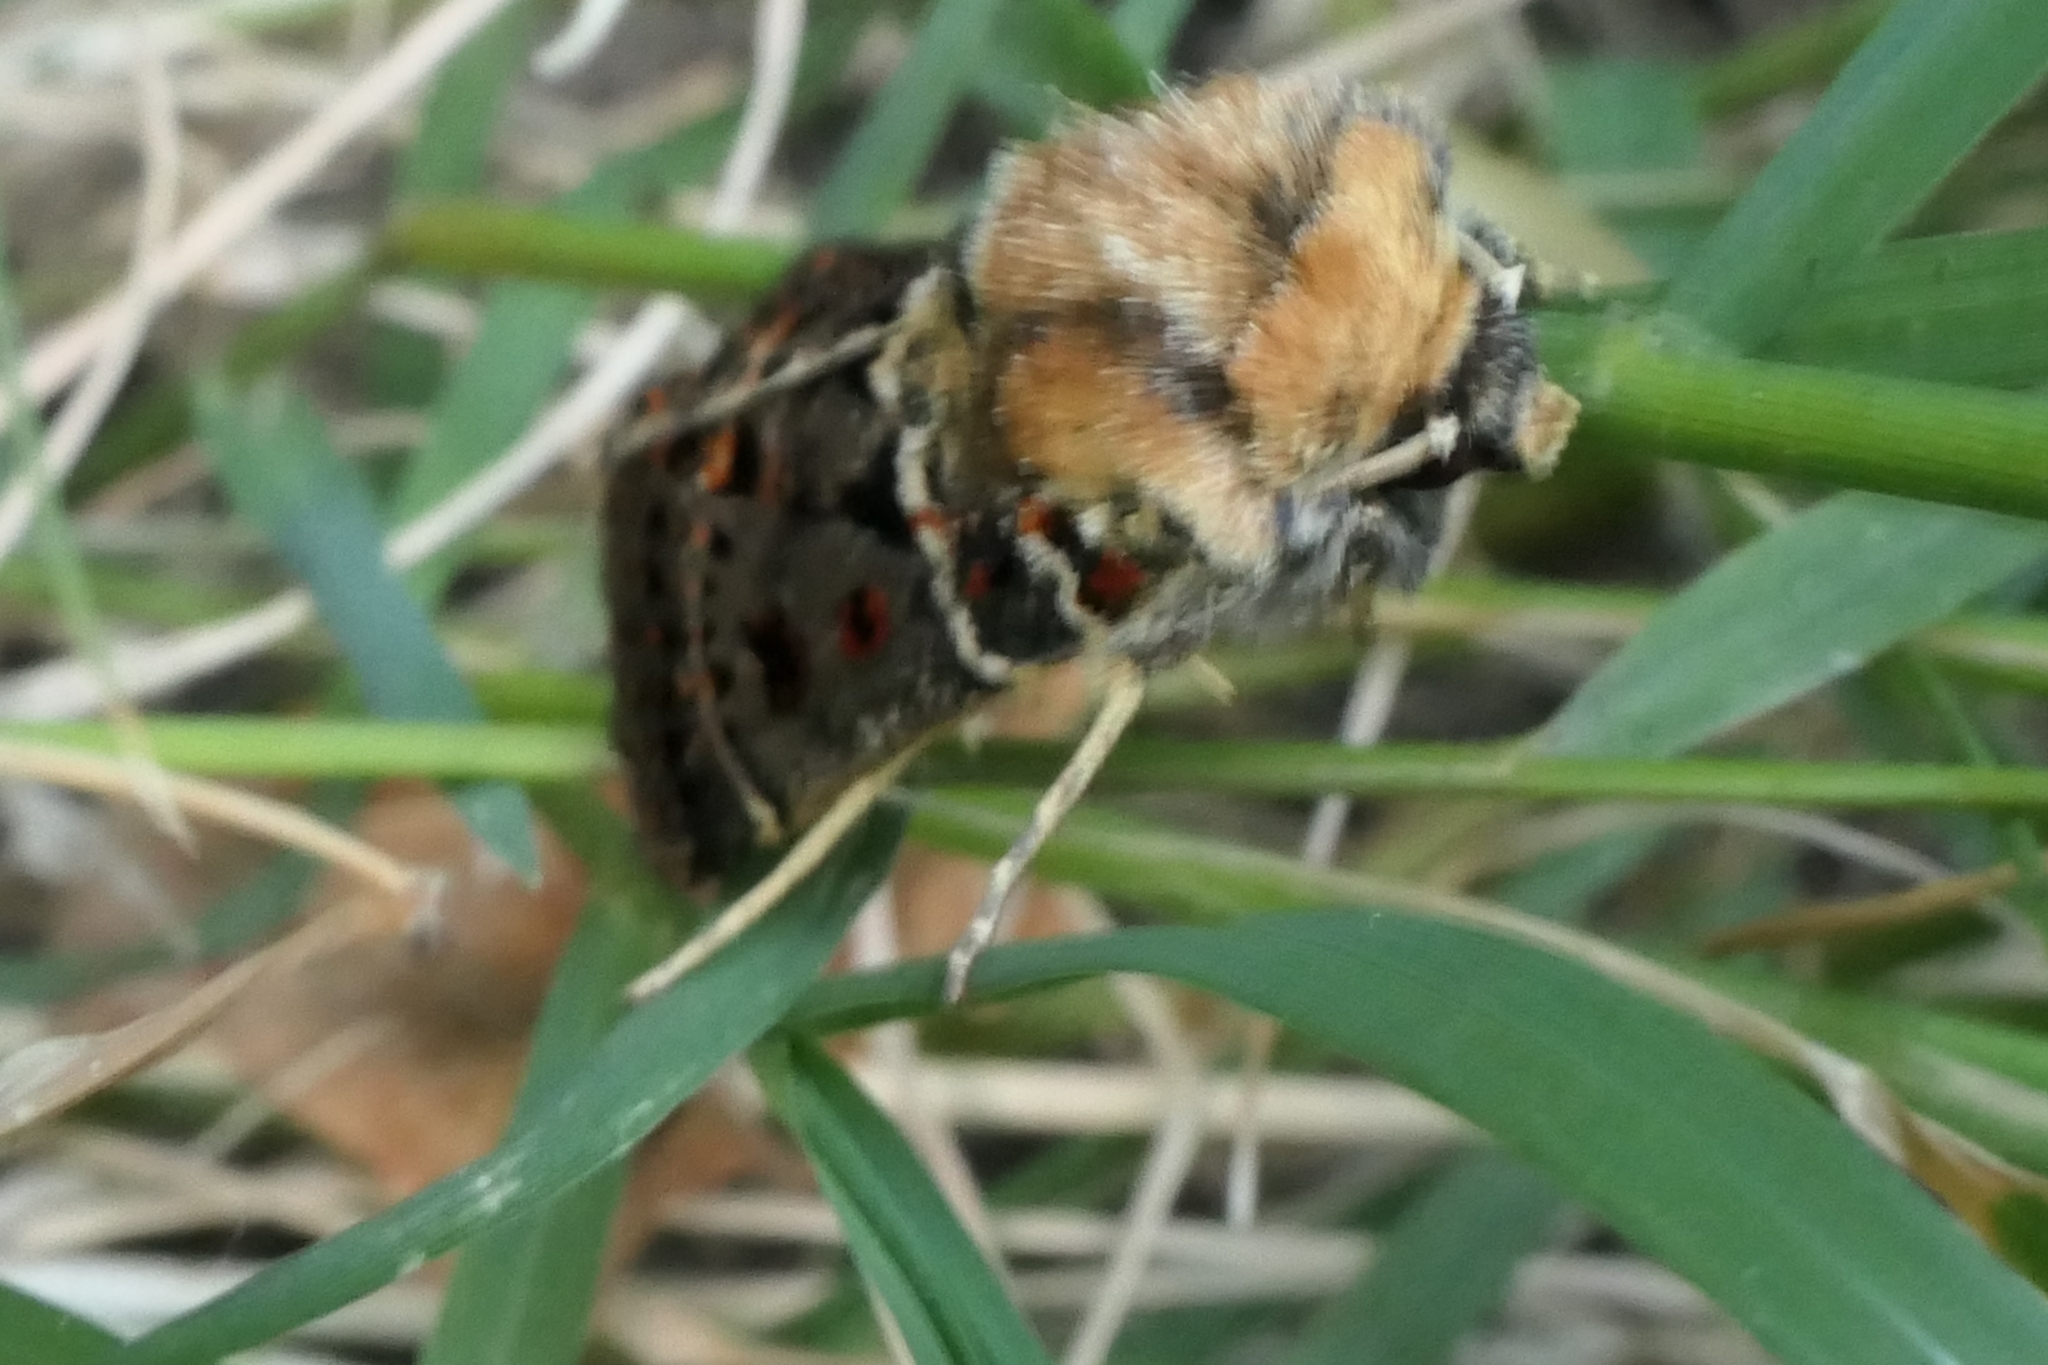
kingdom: Animalia
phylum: Arthropoda
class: Insecta
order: Lepidoptera
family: Noctuidae
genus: Proteuxoa
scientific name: Proteuxoa sanguinipuncta
